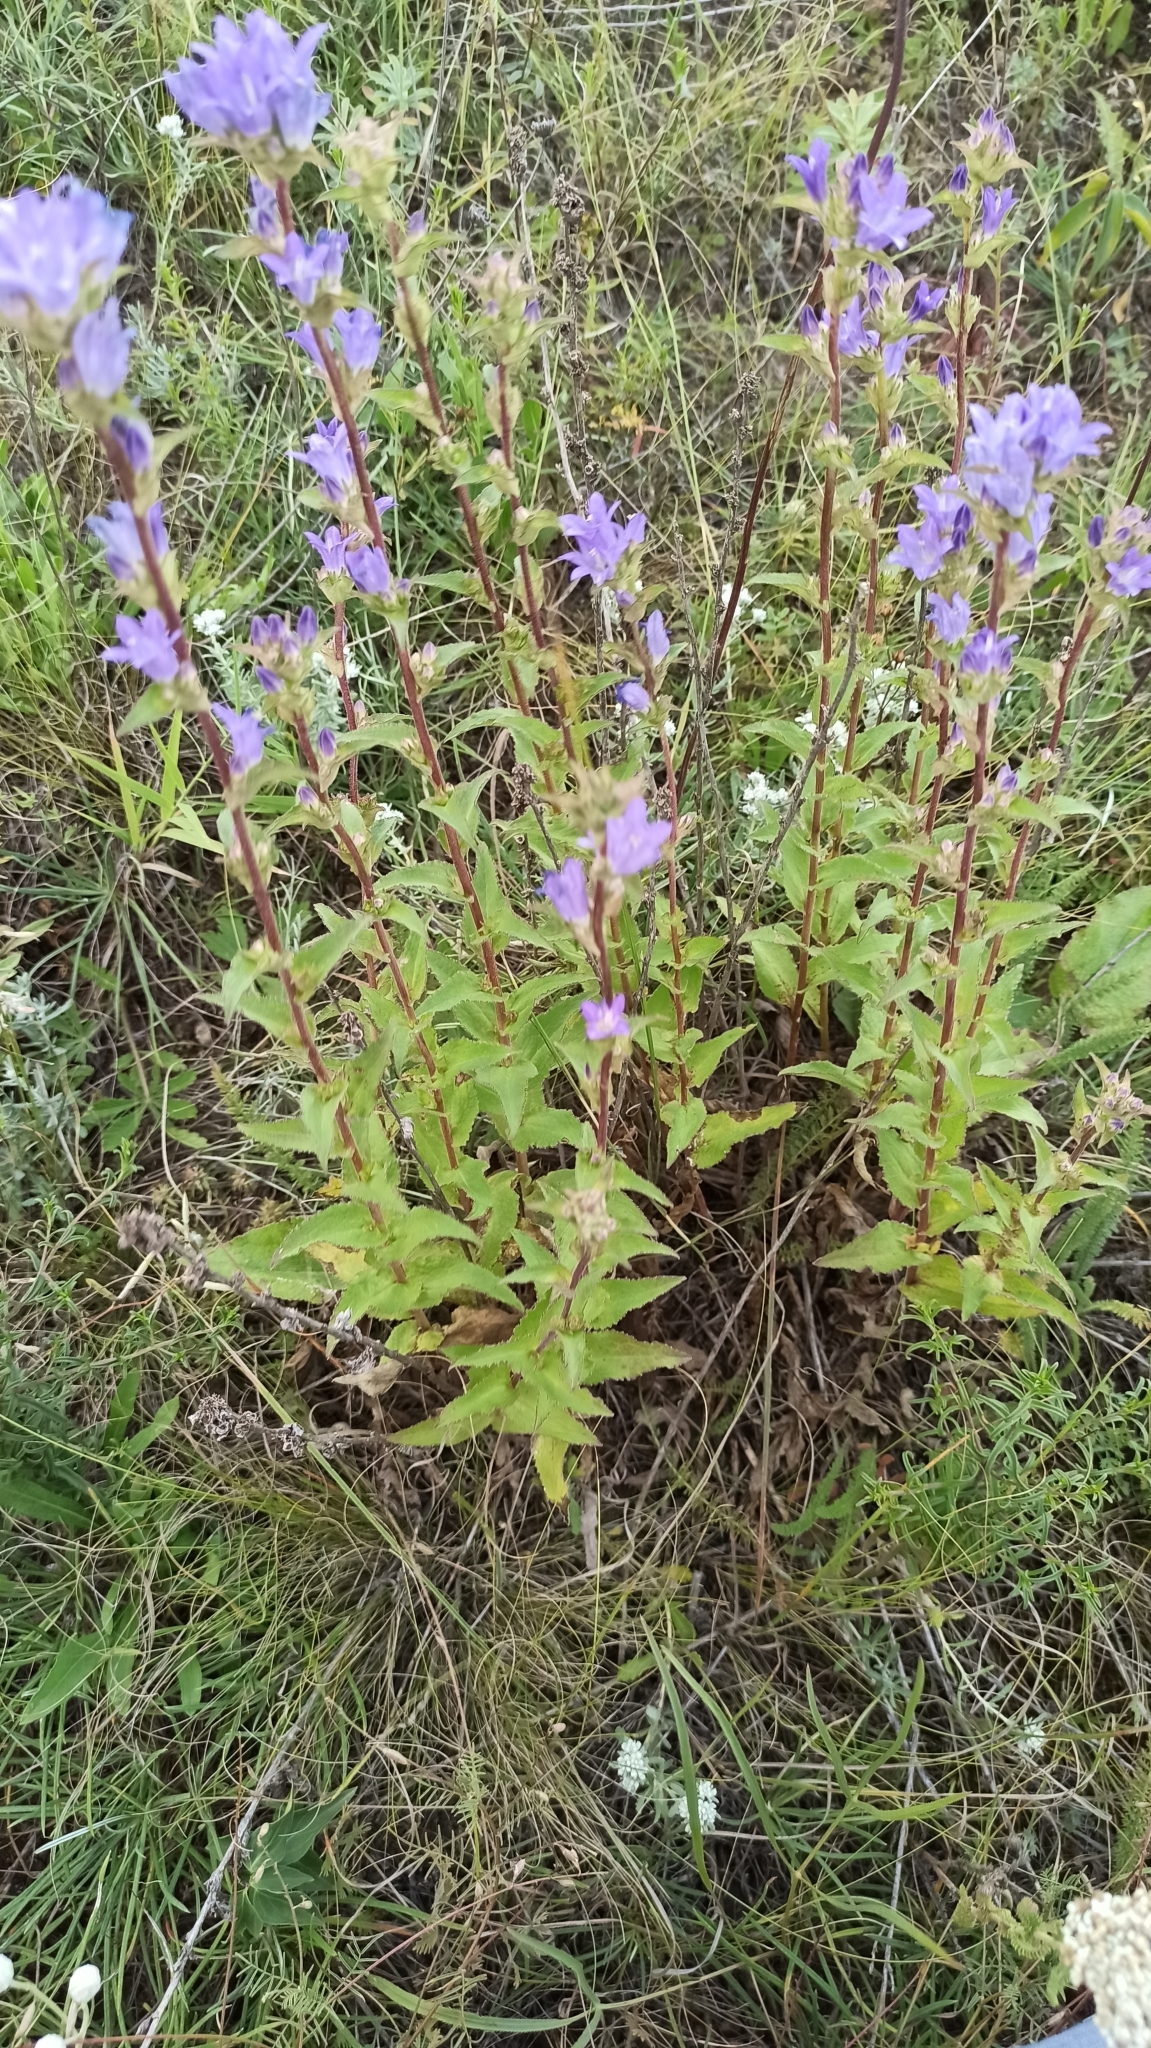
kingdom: Plantae
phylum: Tracheophyta
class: Magnoliopsida
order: Asterales
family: Campanulaceae
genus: Campanula
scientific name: Campanula glomerata
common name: Clustered bellflower
